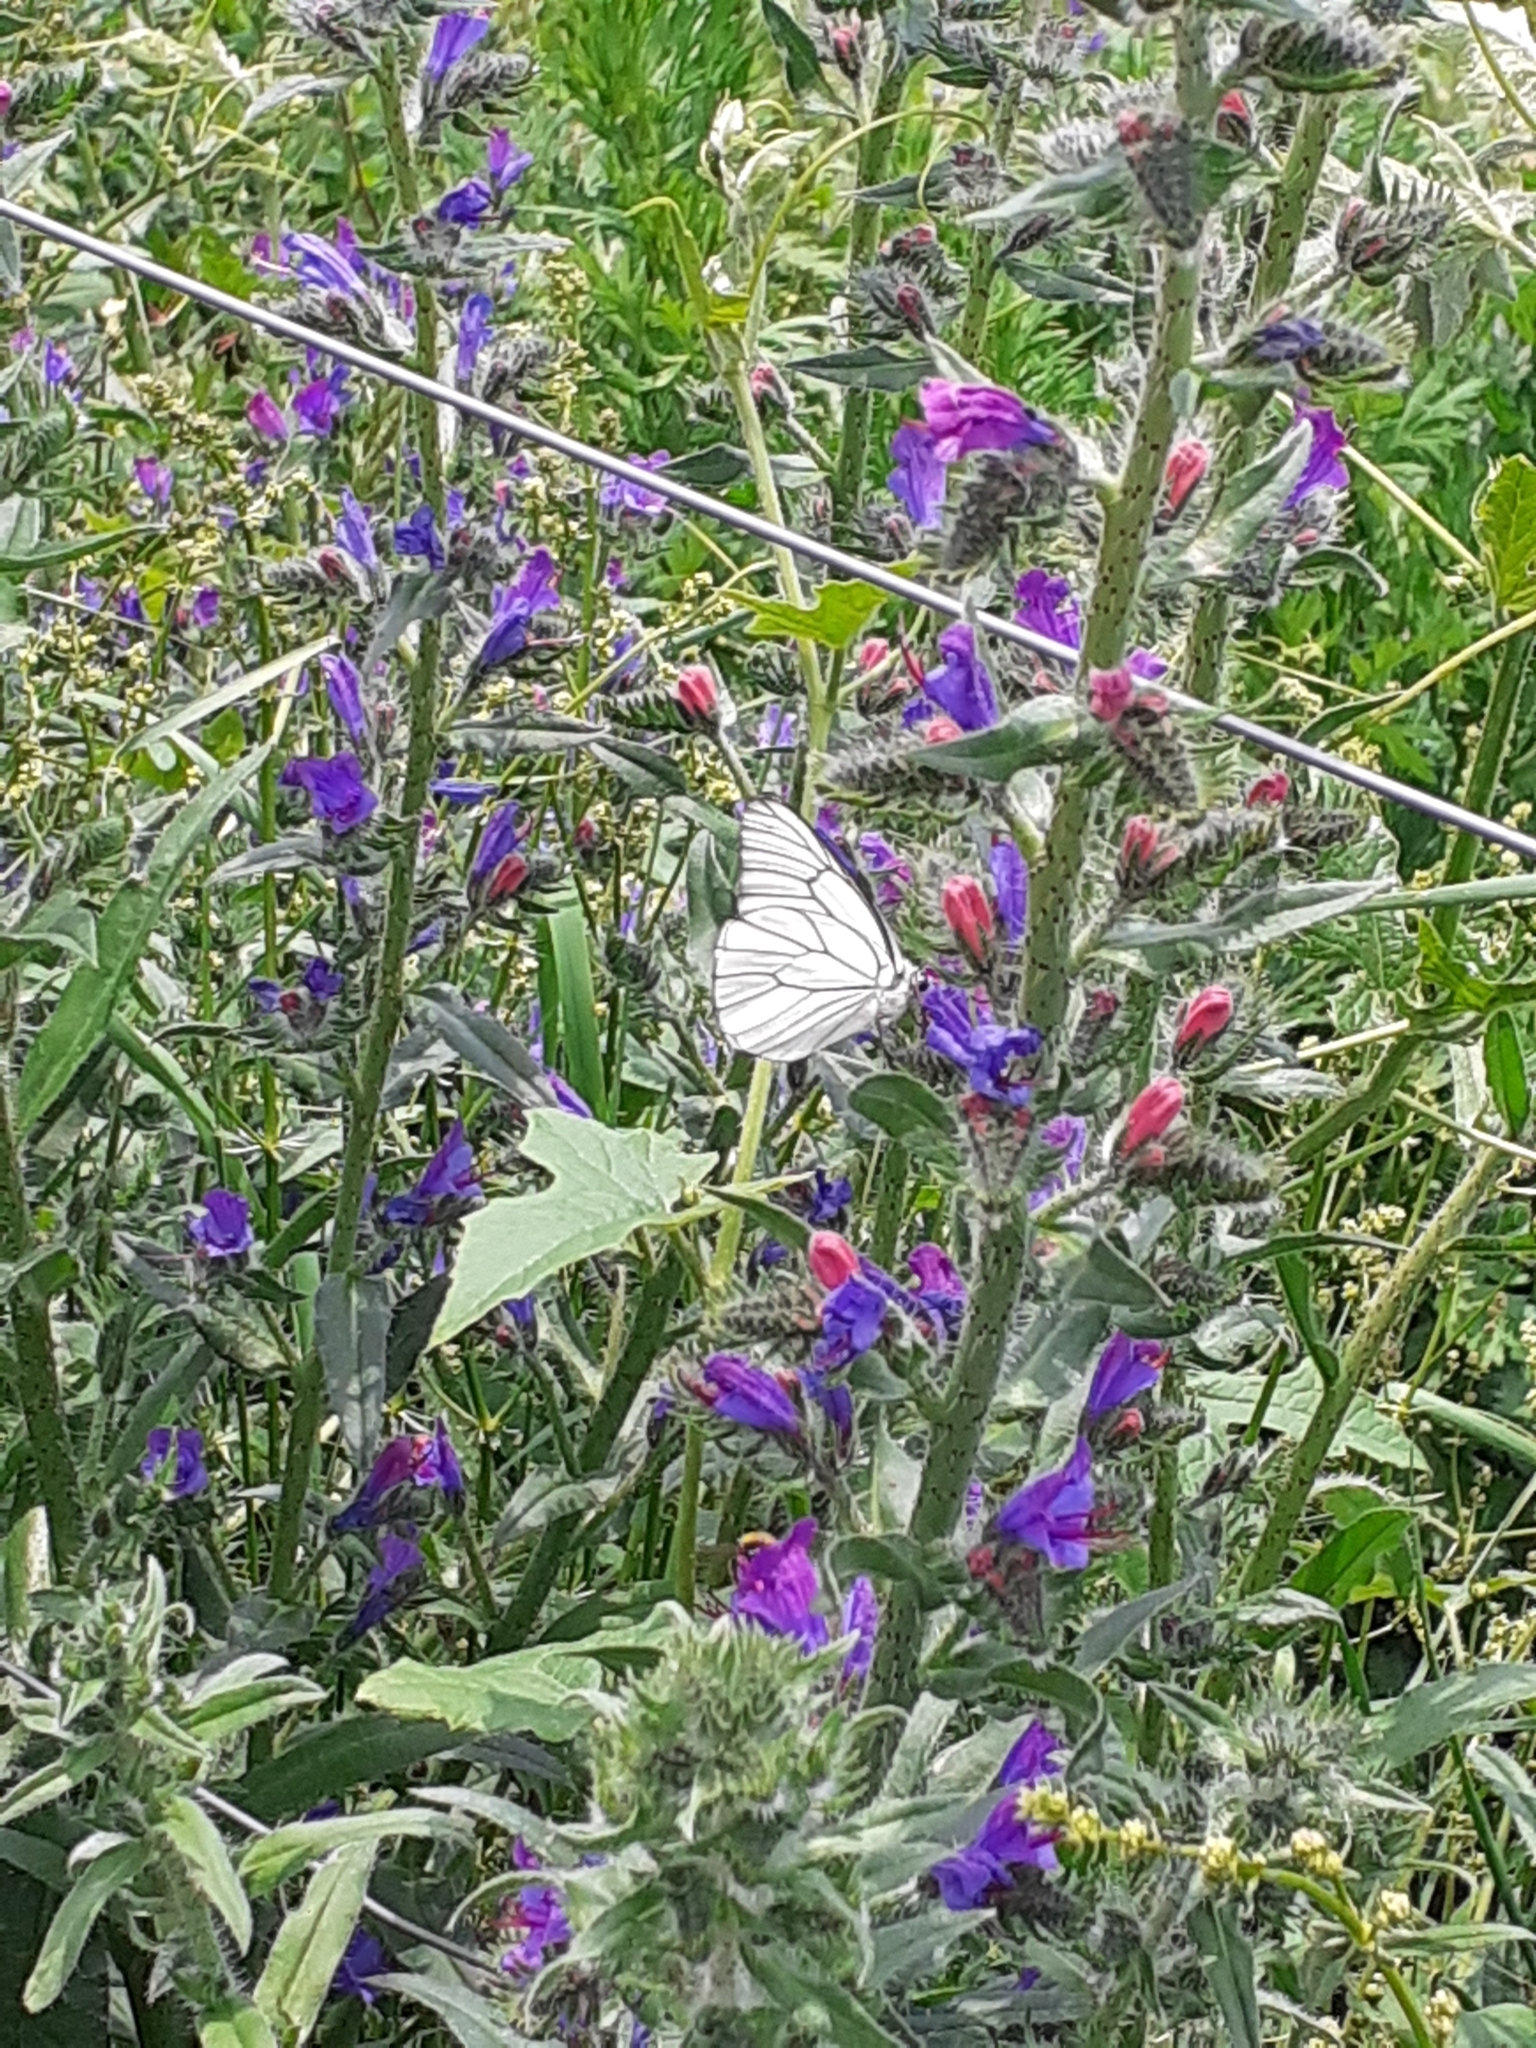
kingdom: Animalia
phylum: Arthropoda
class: Insecta
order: Lepidoptera
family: Pieridae
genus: Aporia
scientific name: Aporia crataegi
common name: Black-veined white
